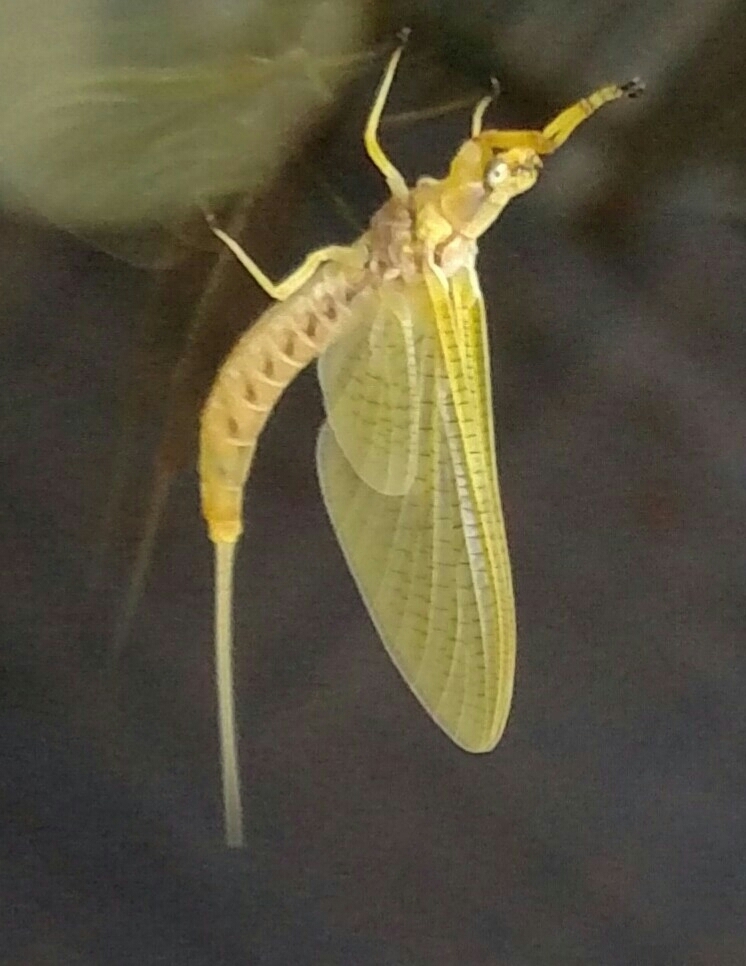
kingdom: Animalia
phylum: Arthropoda
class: Insecta
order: Ephemeroptera
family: Ephemeridae
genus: Hexagenia
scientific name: Hexagenia limbata
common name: Giant mayfly
